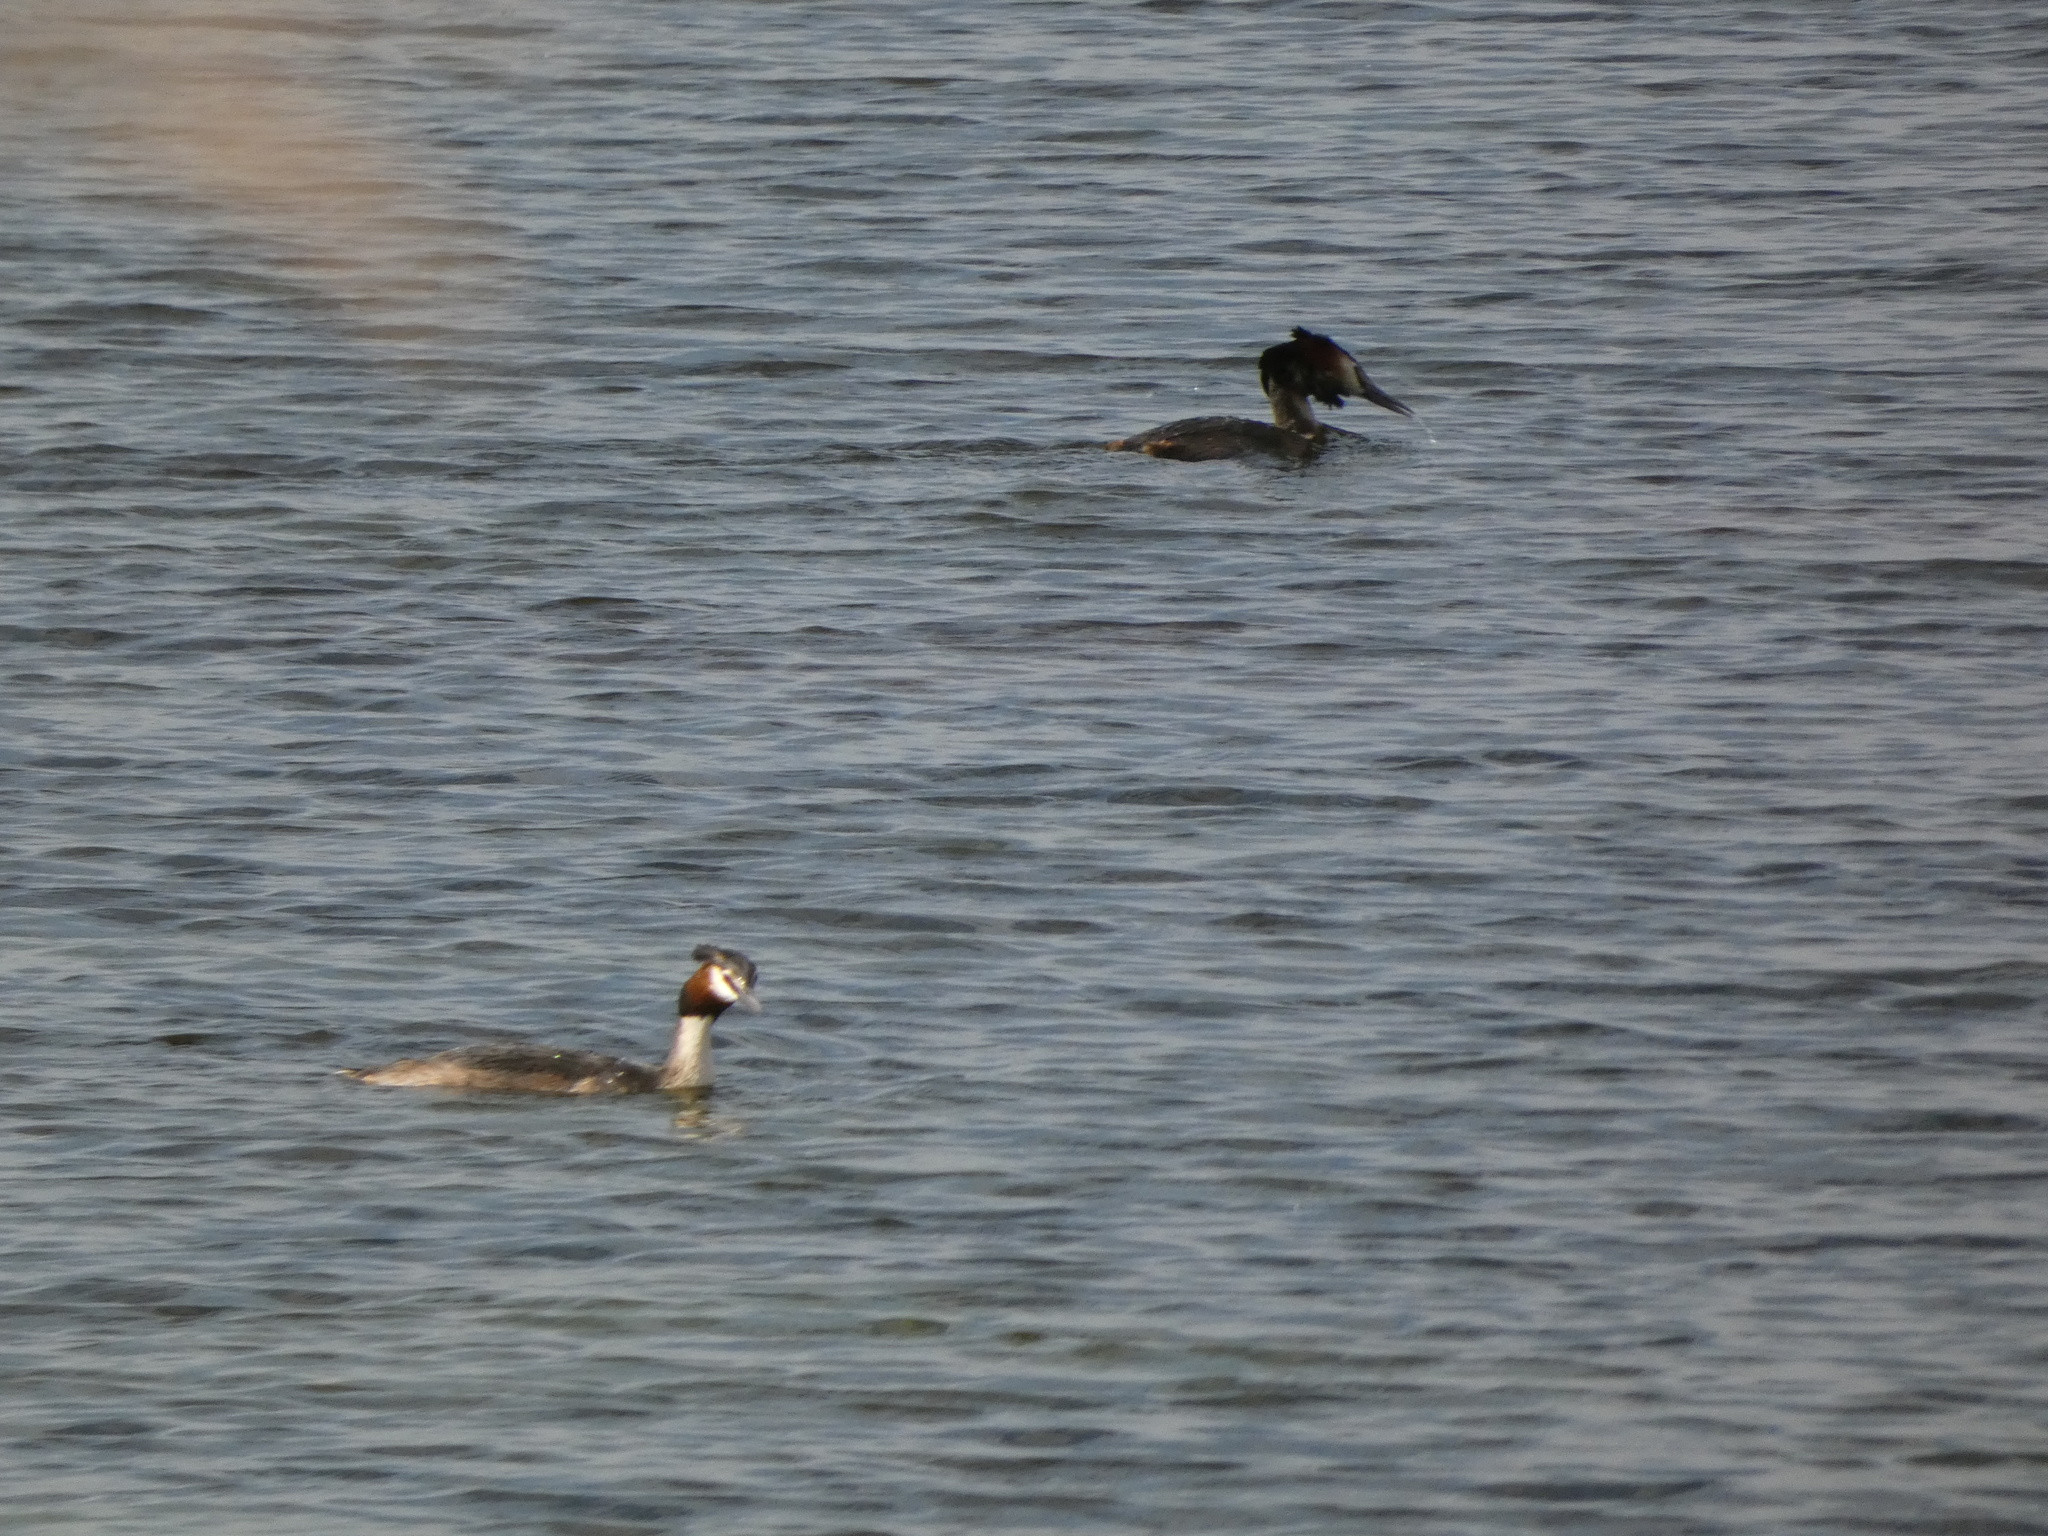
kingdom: Animalia
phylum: Chordata
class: Aves
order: Podicipediformes
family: Podicipedidae
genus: Podiceps
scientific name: Podiceps cristatus
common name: Great crested grebe
